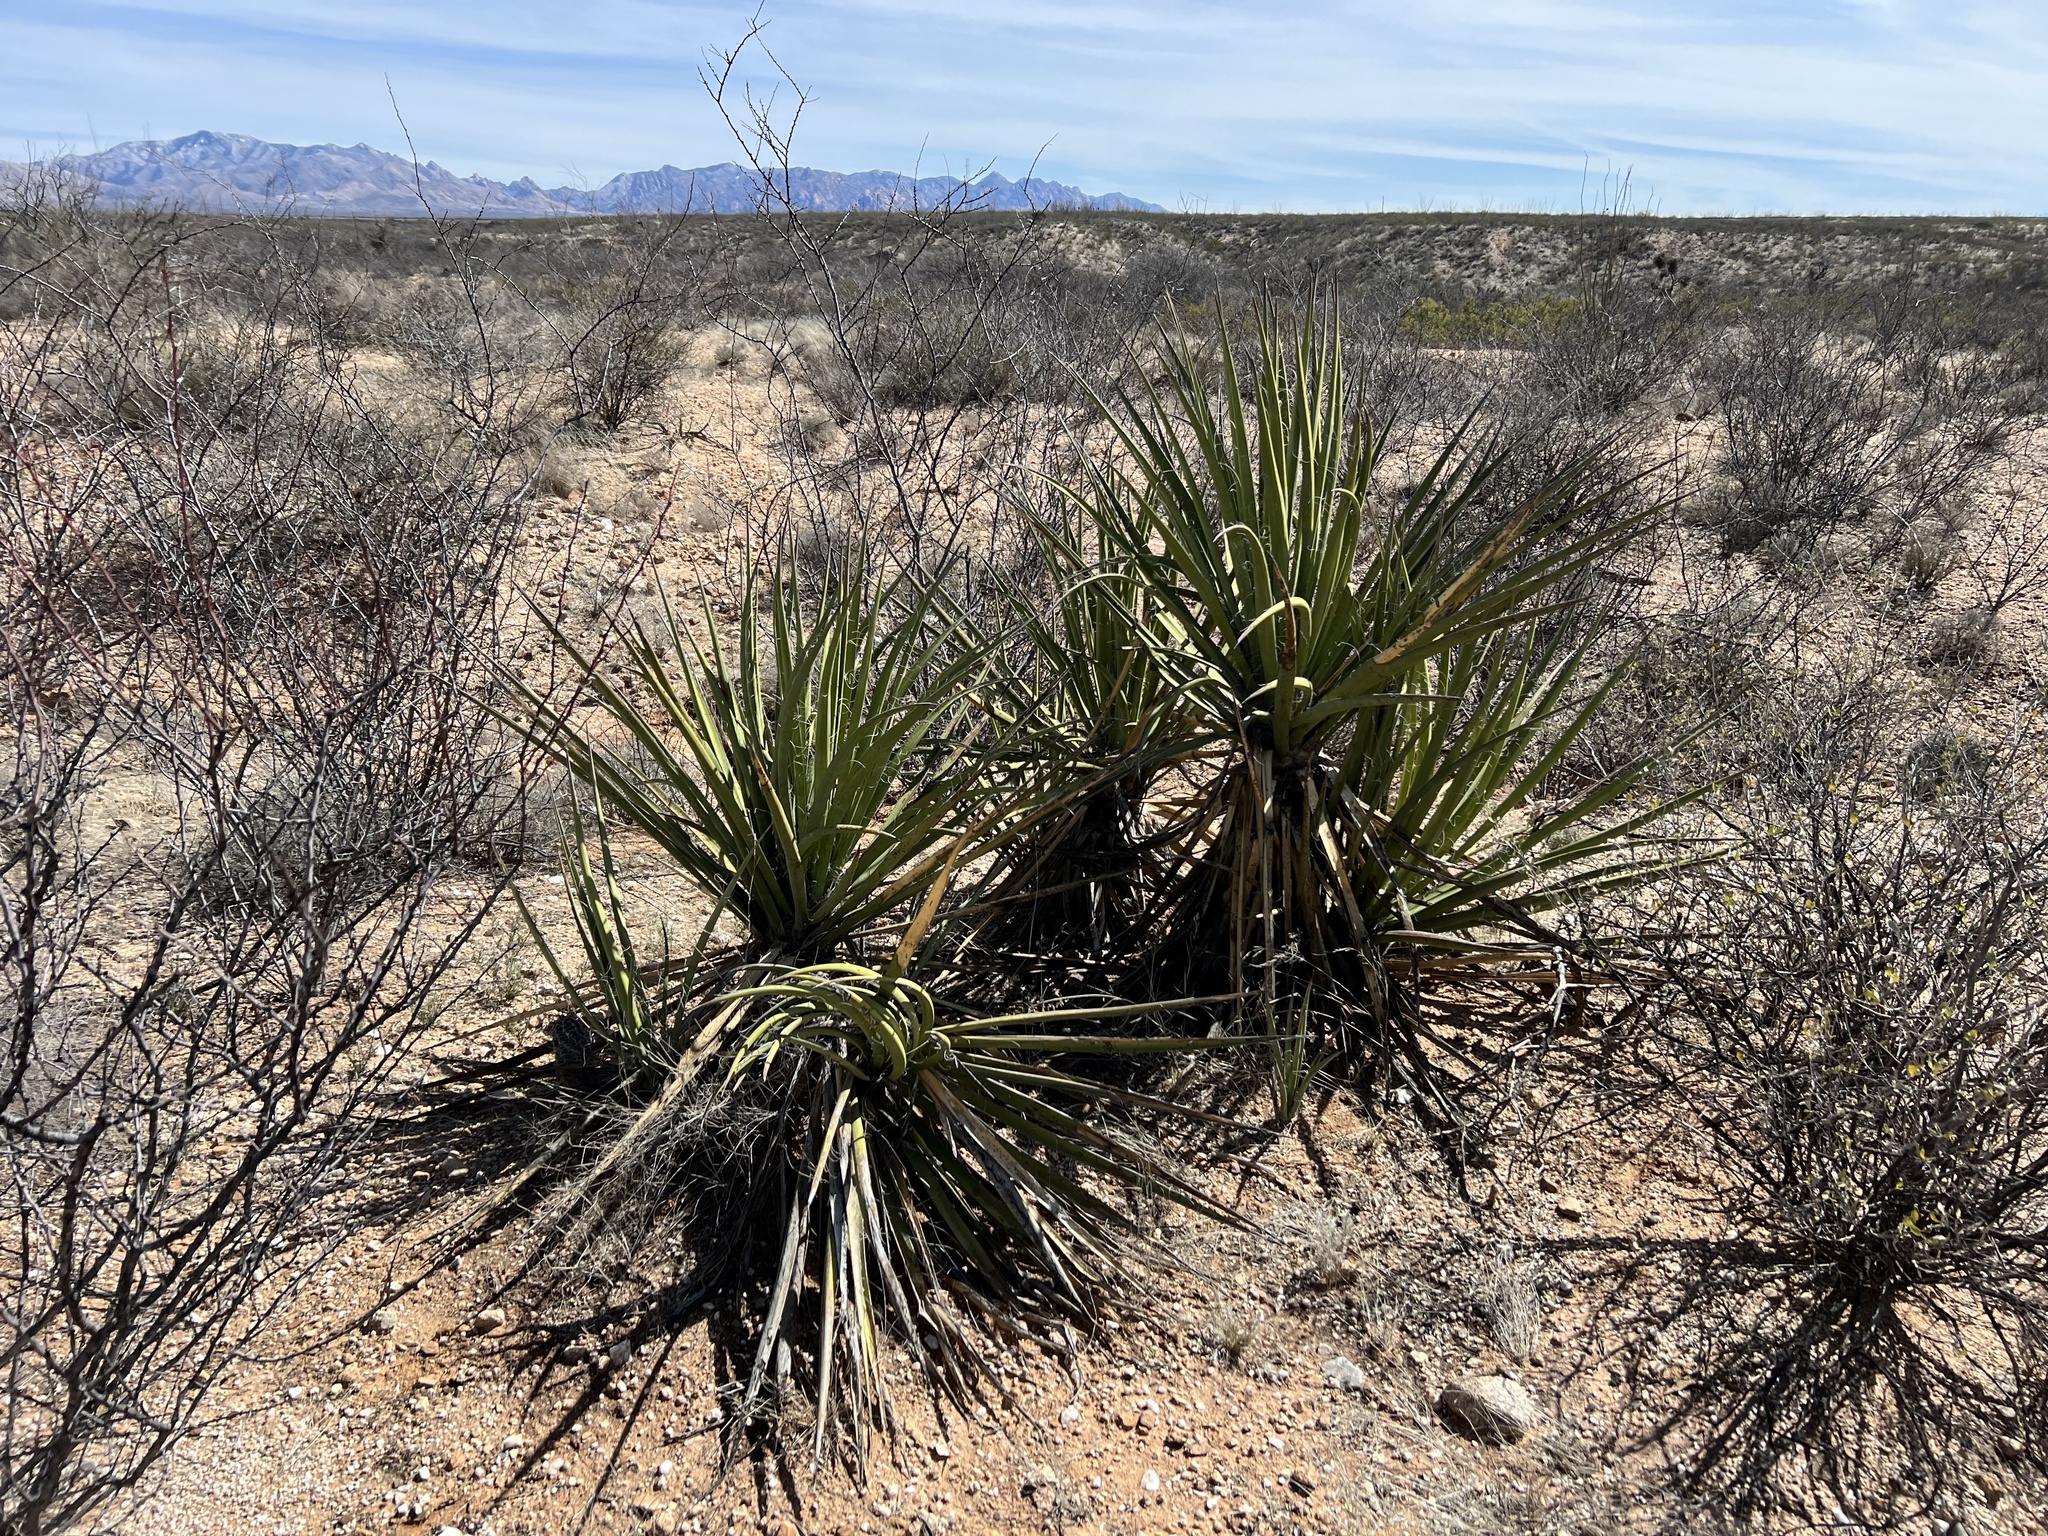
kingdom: Plantae
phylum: Tracheophyta
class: Liliopsida
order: Asparagales
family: Asparagaceae
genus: Yucca
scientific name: Yucca baccata
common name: Banana yucca
